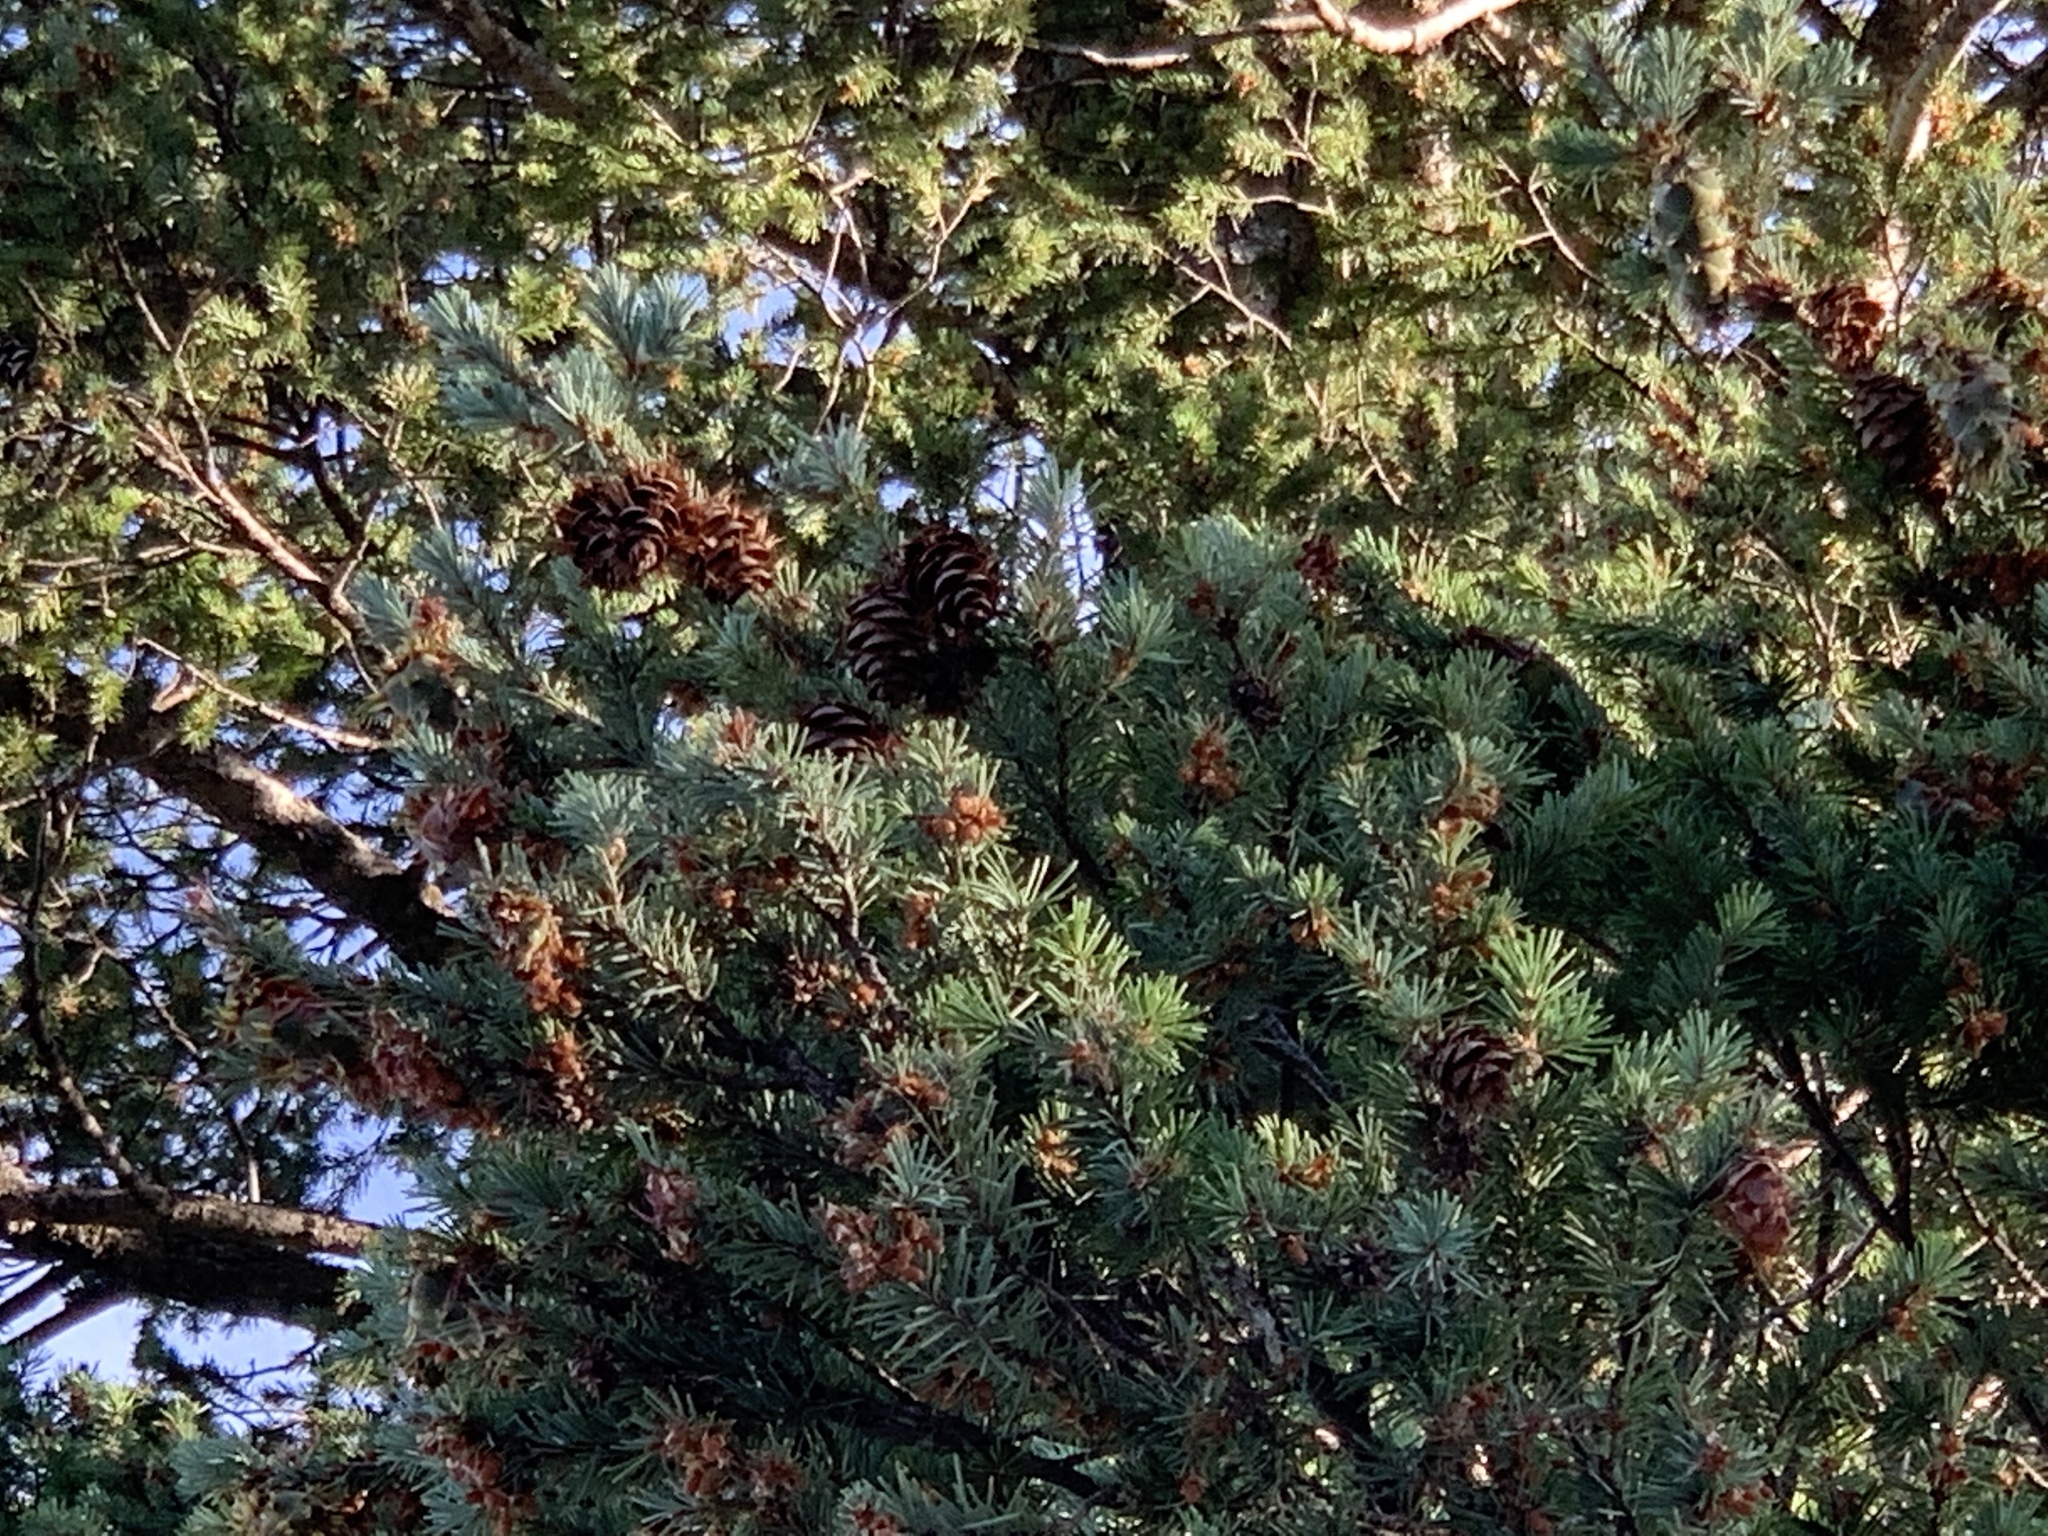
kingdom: Plantae
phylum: Tracheophyta
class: Pinopsida
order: Pinales
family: Pinaceae
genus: Pseudotsuga
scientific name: Pseudotsuga menziesii
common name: Douglas fir
